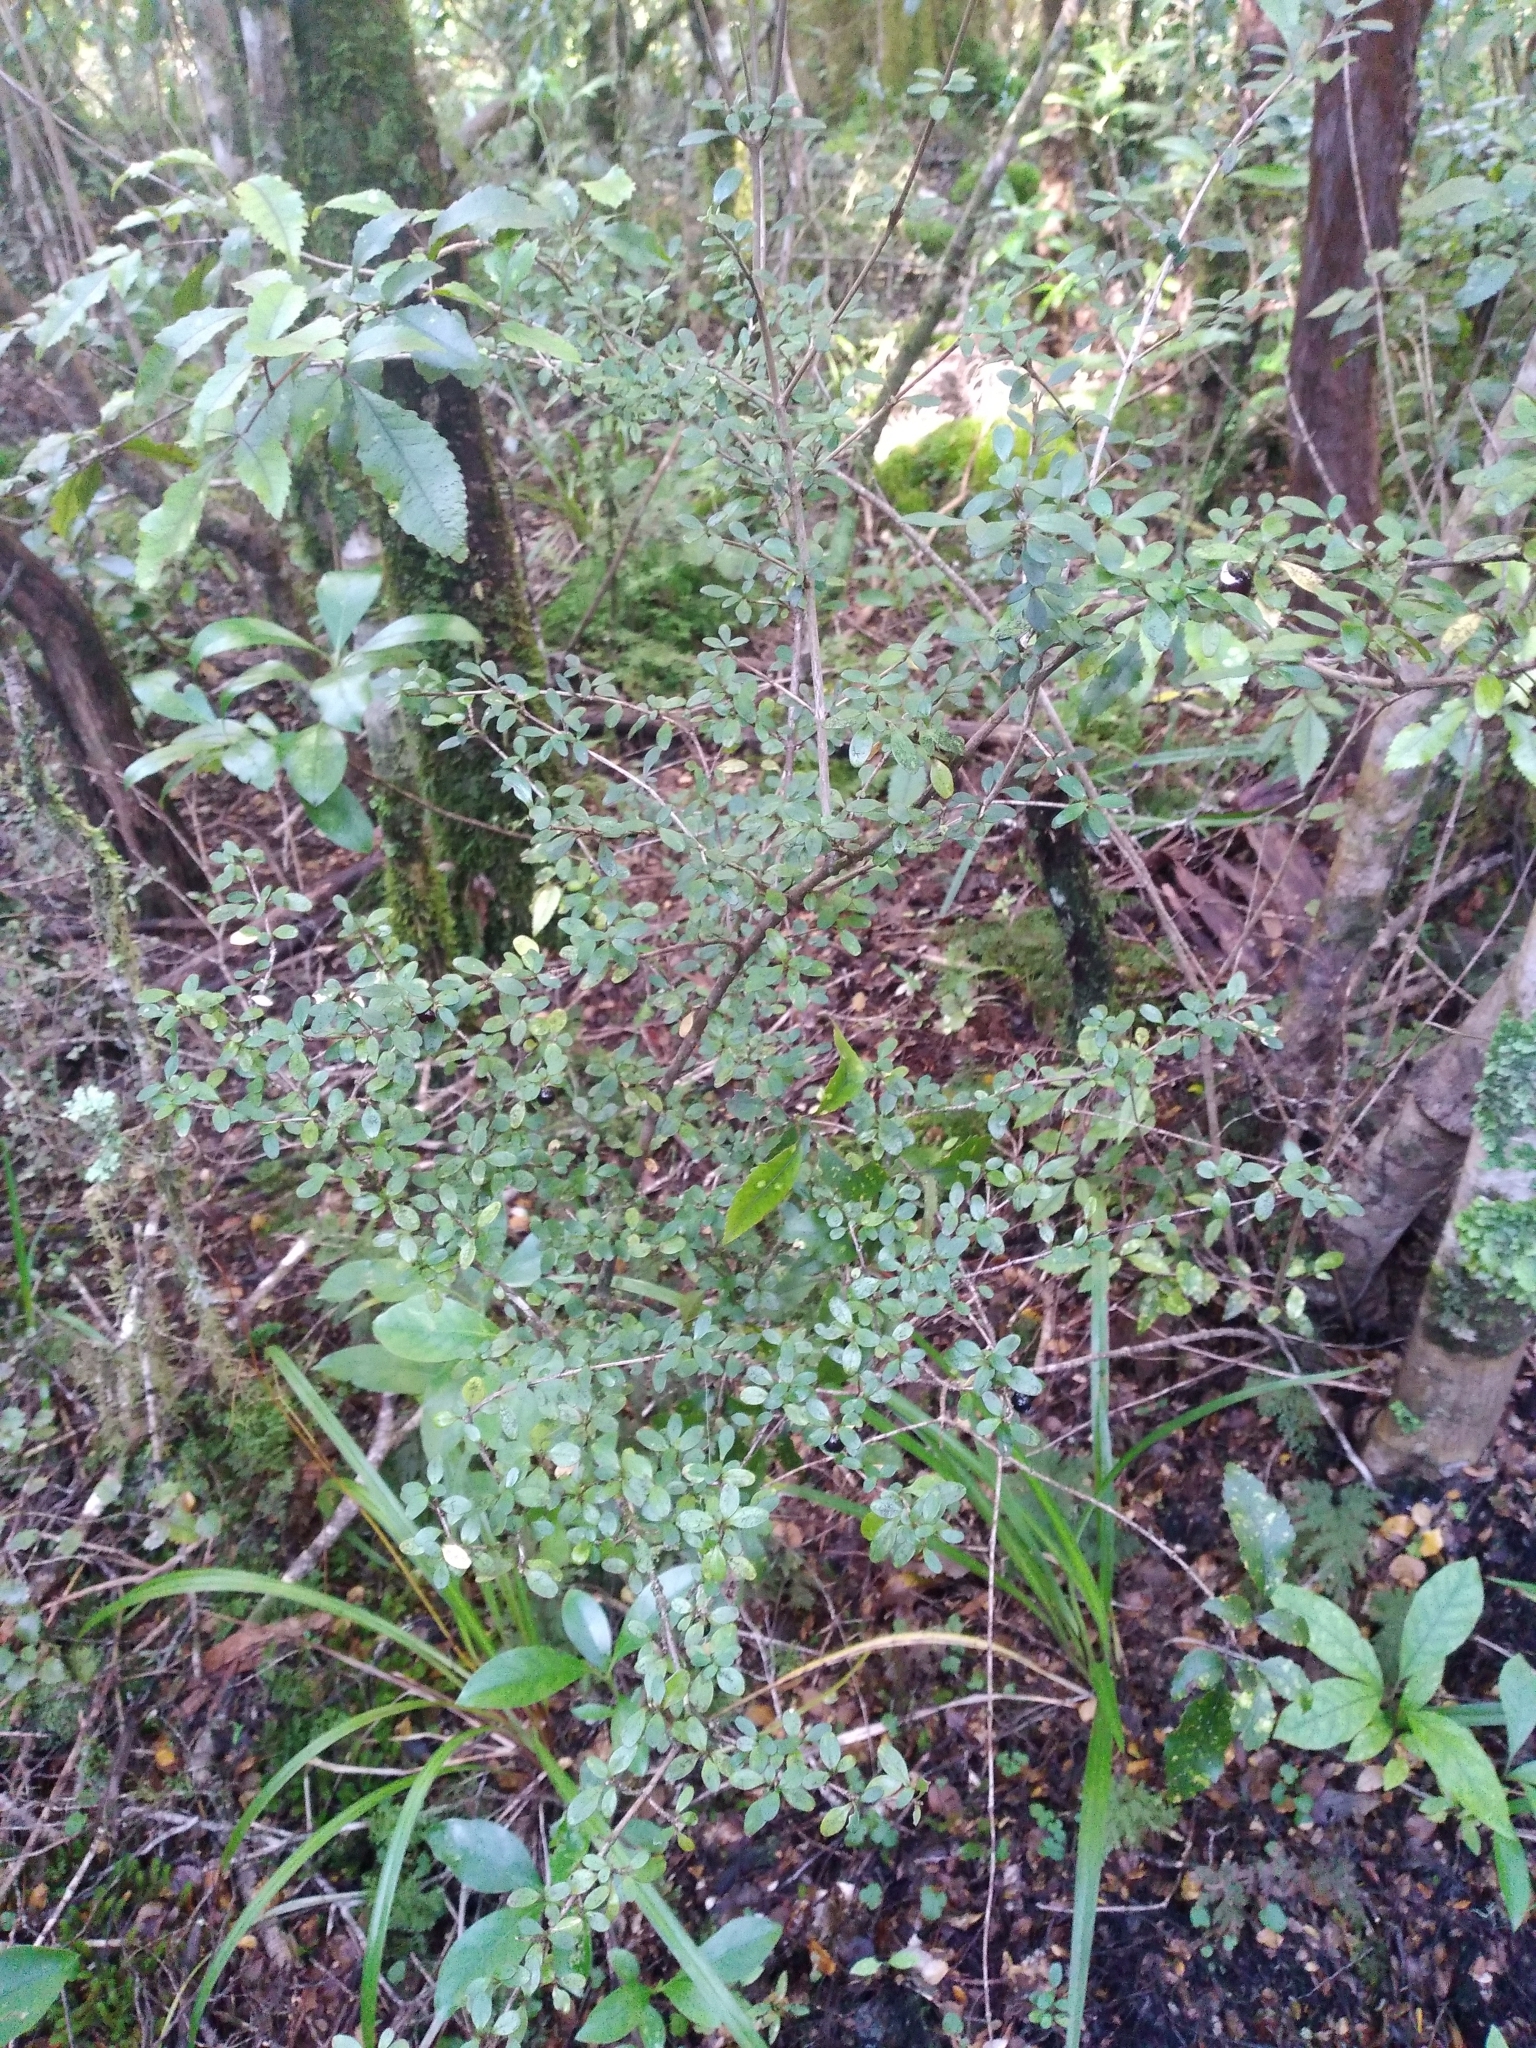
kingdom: Plantae
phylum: Tracheophyta
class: Magnoliopsida
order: Gentianales
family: Rubiaceae
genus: Coprosma
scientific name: Coprosma colensoi
